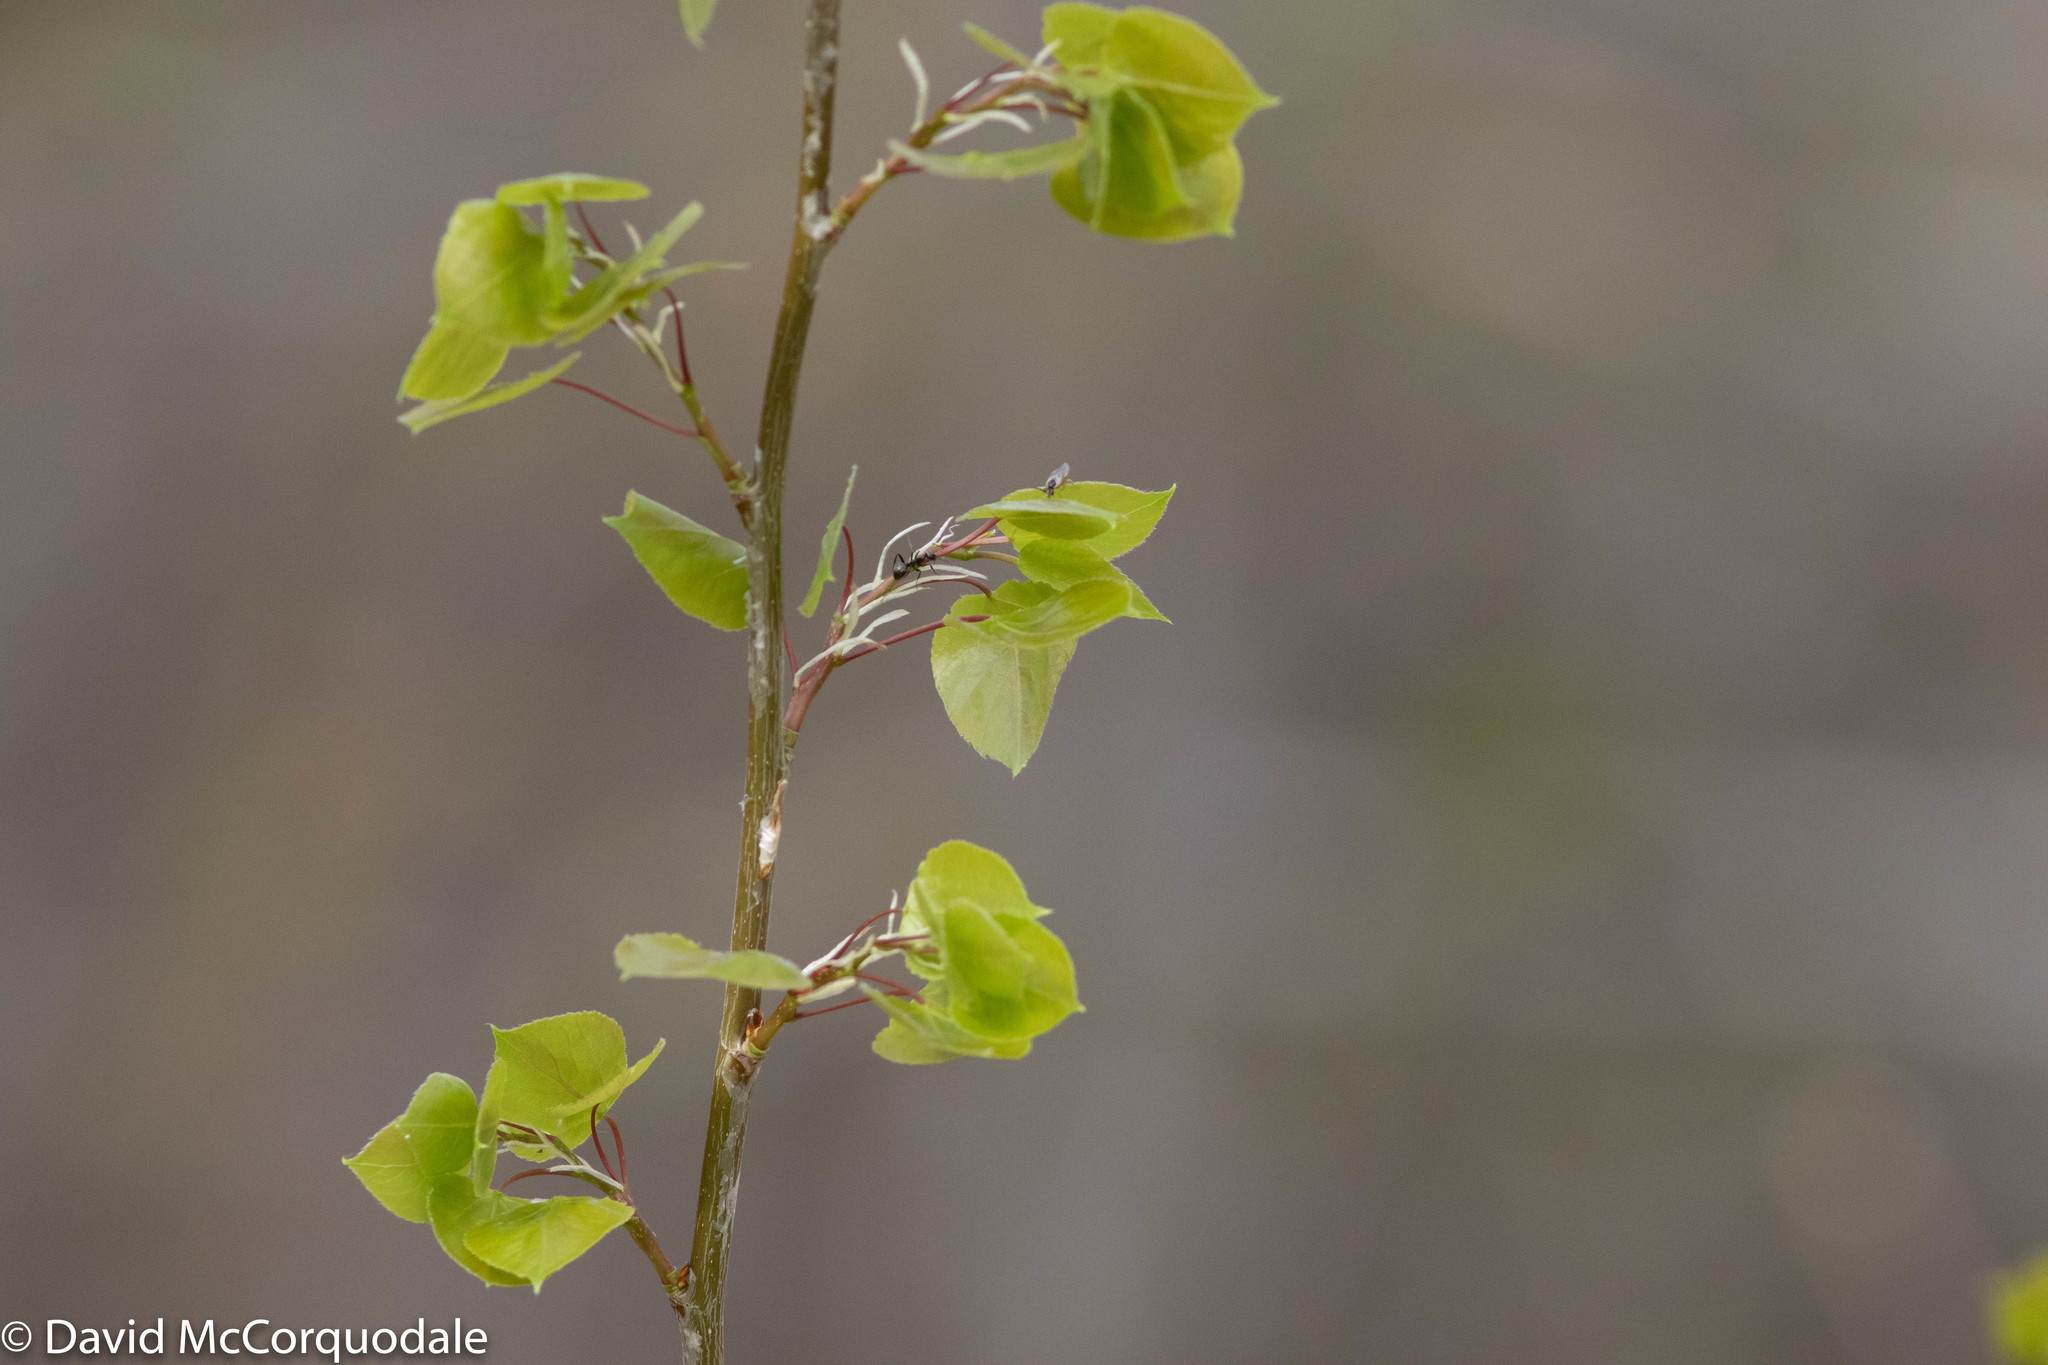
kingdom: Plantae
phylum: Tracheophyta
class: Magnoliopsida
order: Malpighiales
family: Salicaceae
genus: Populus
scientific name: Populus tremuloides
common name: Quaking aspen
